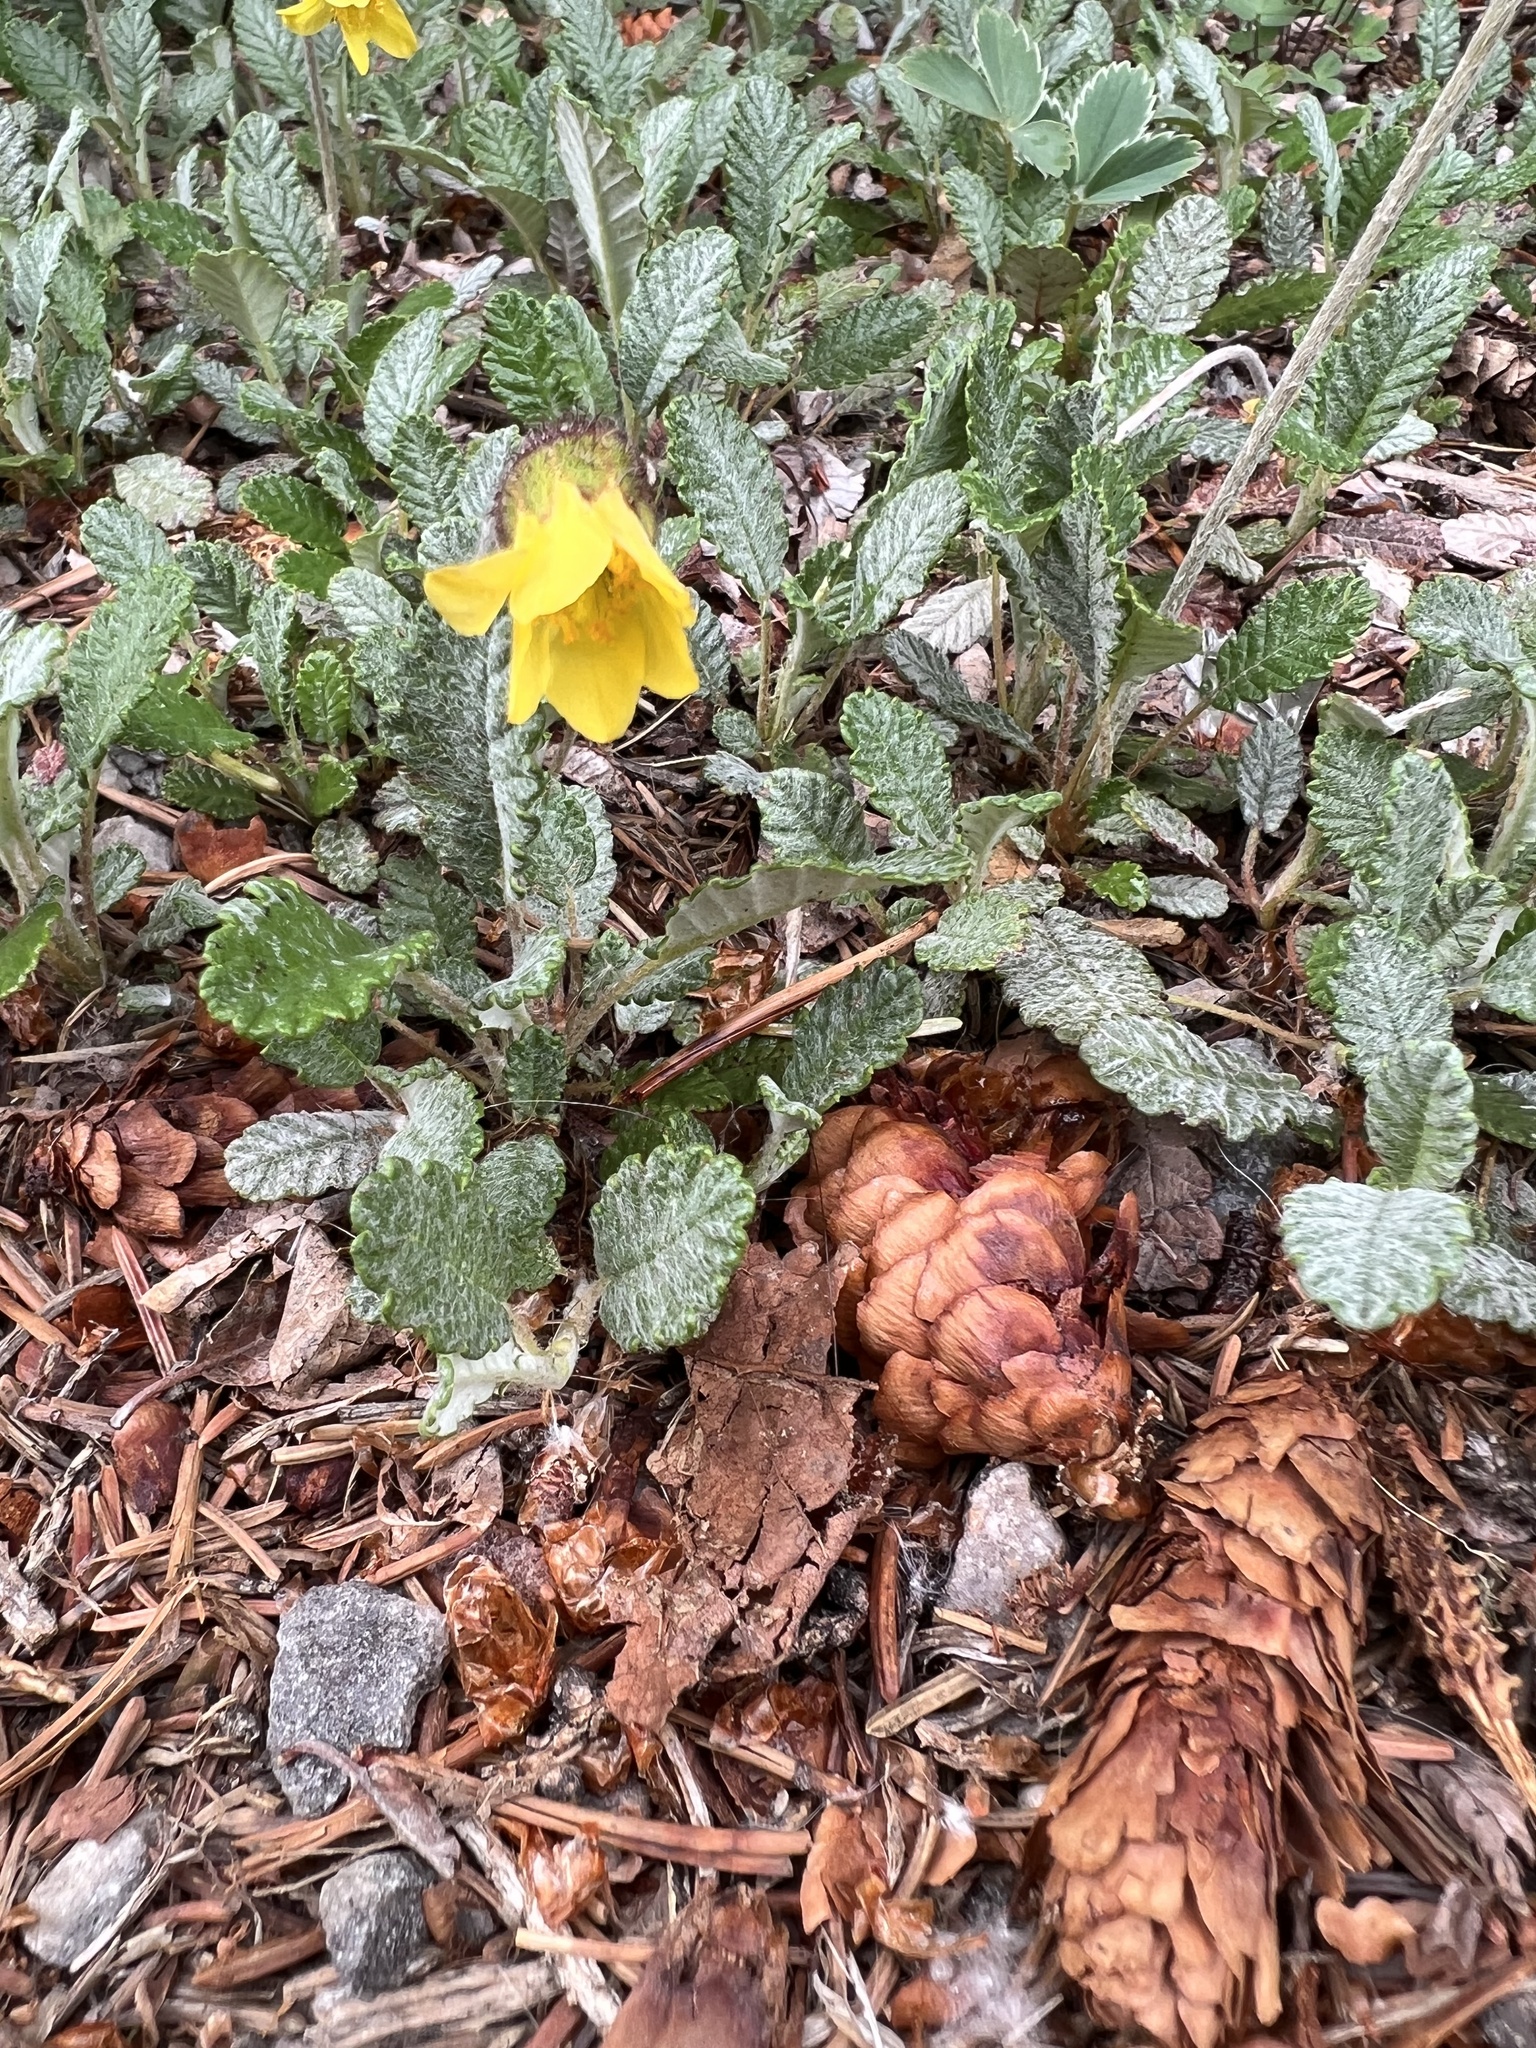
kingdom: Plantae
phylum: Tracheophyta
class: Magnoliopsida
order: Rosales
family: Rosaceae
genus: Dryas
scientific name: Dryas drummondii
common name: Drummond's dryad
